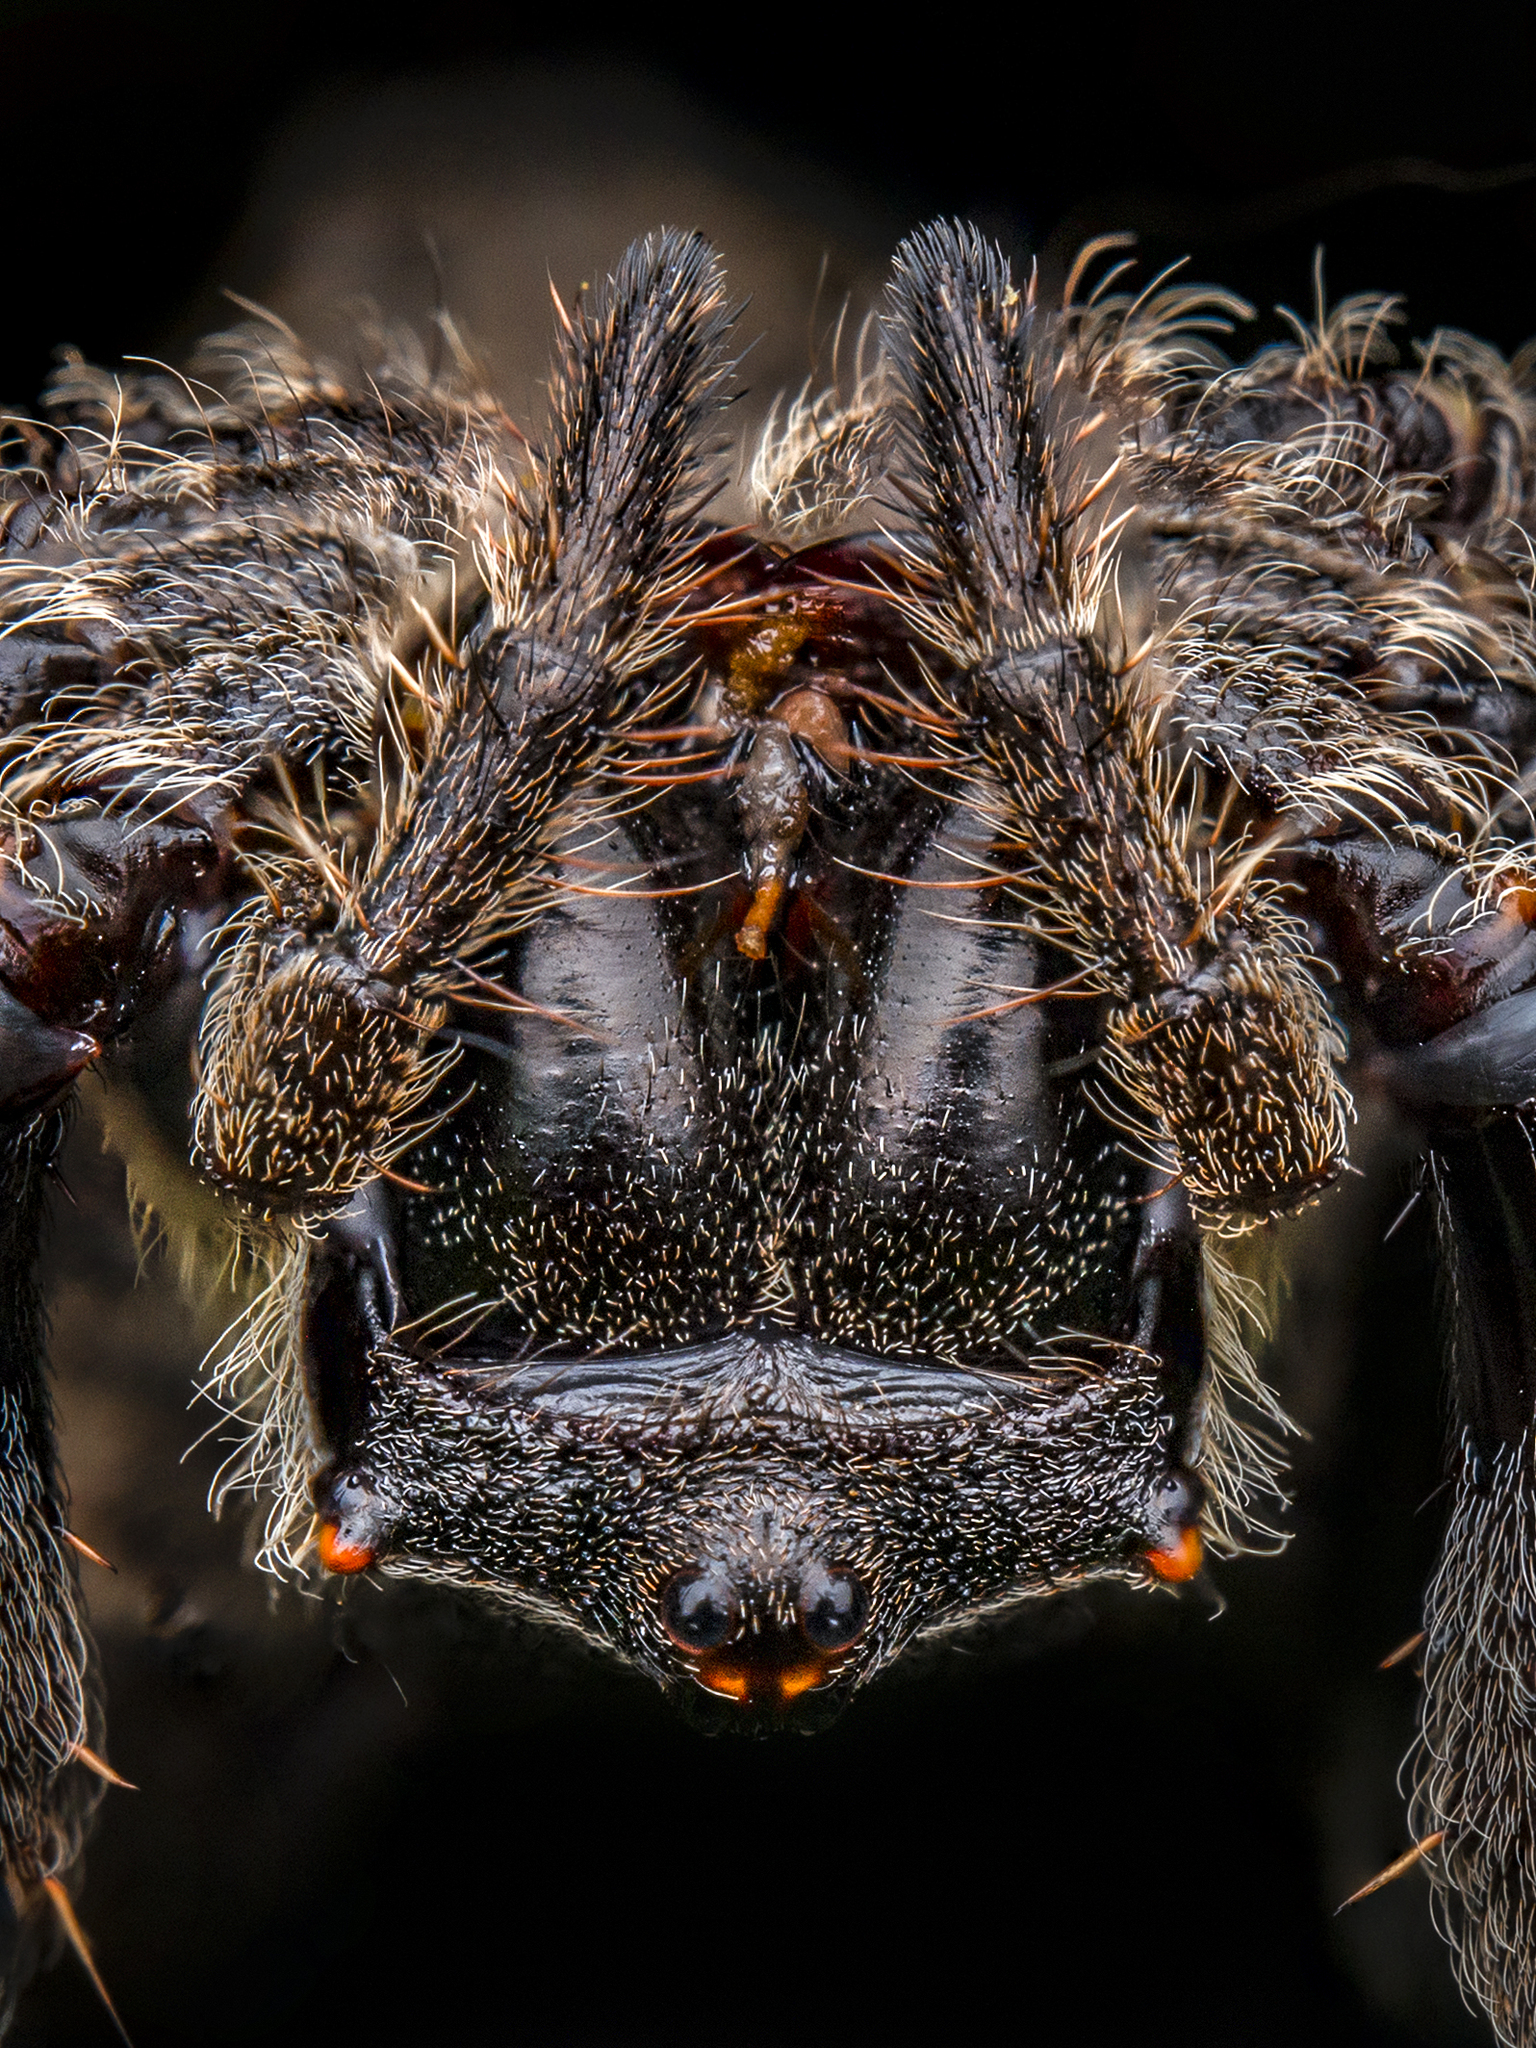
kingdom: Animalia
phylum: Arthropoda
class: Arachnida
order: Araneae
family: Araneidae
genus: Parawixia
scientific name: Parawixia dehaani
